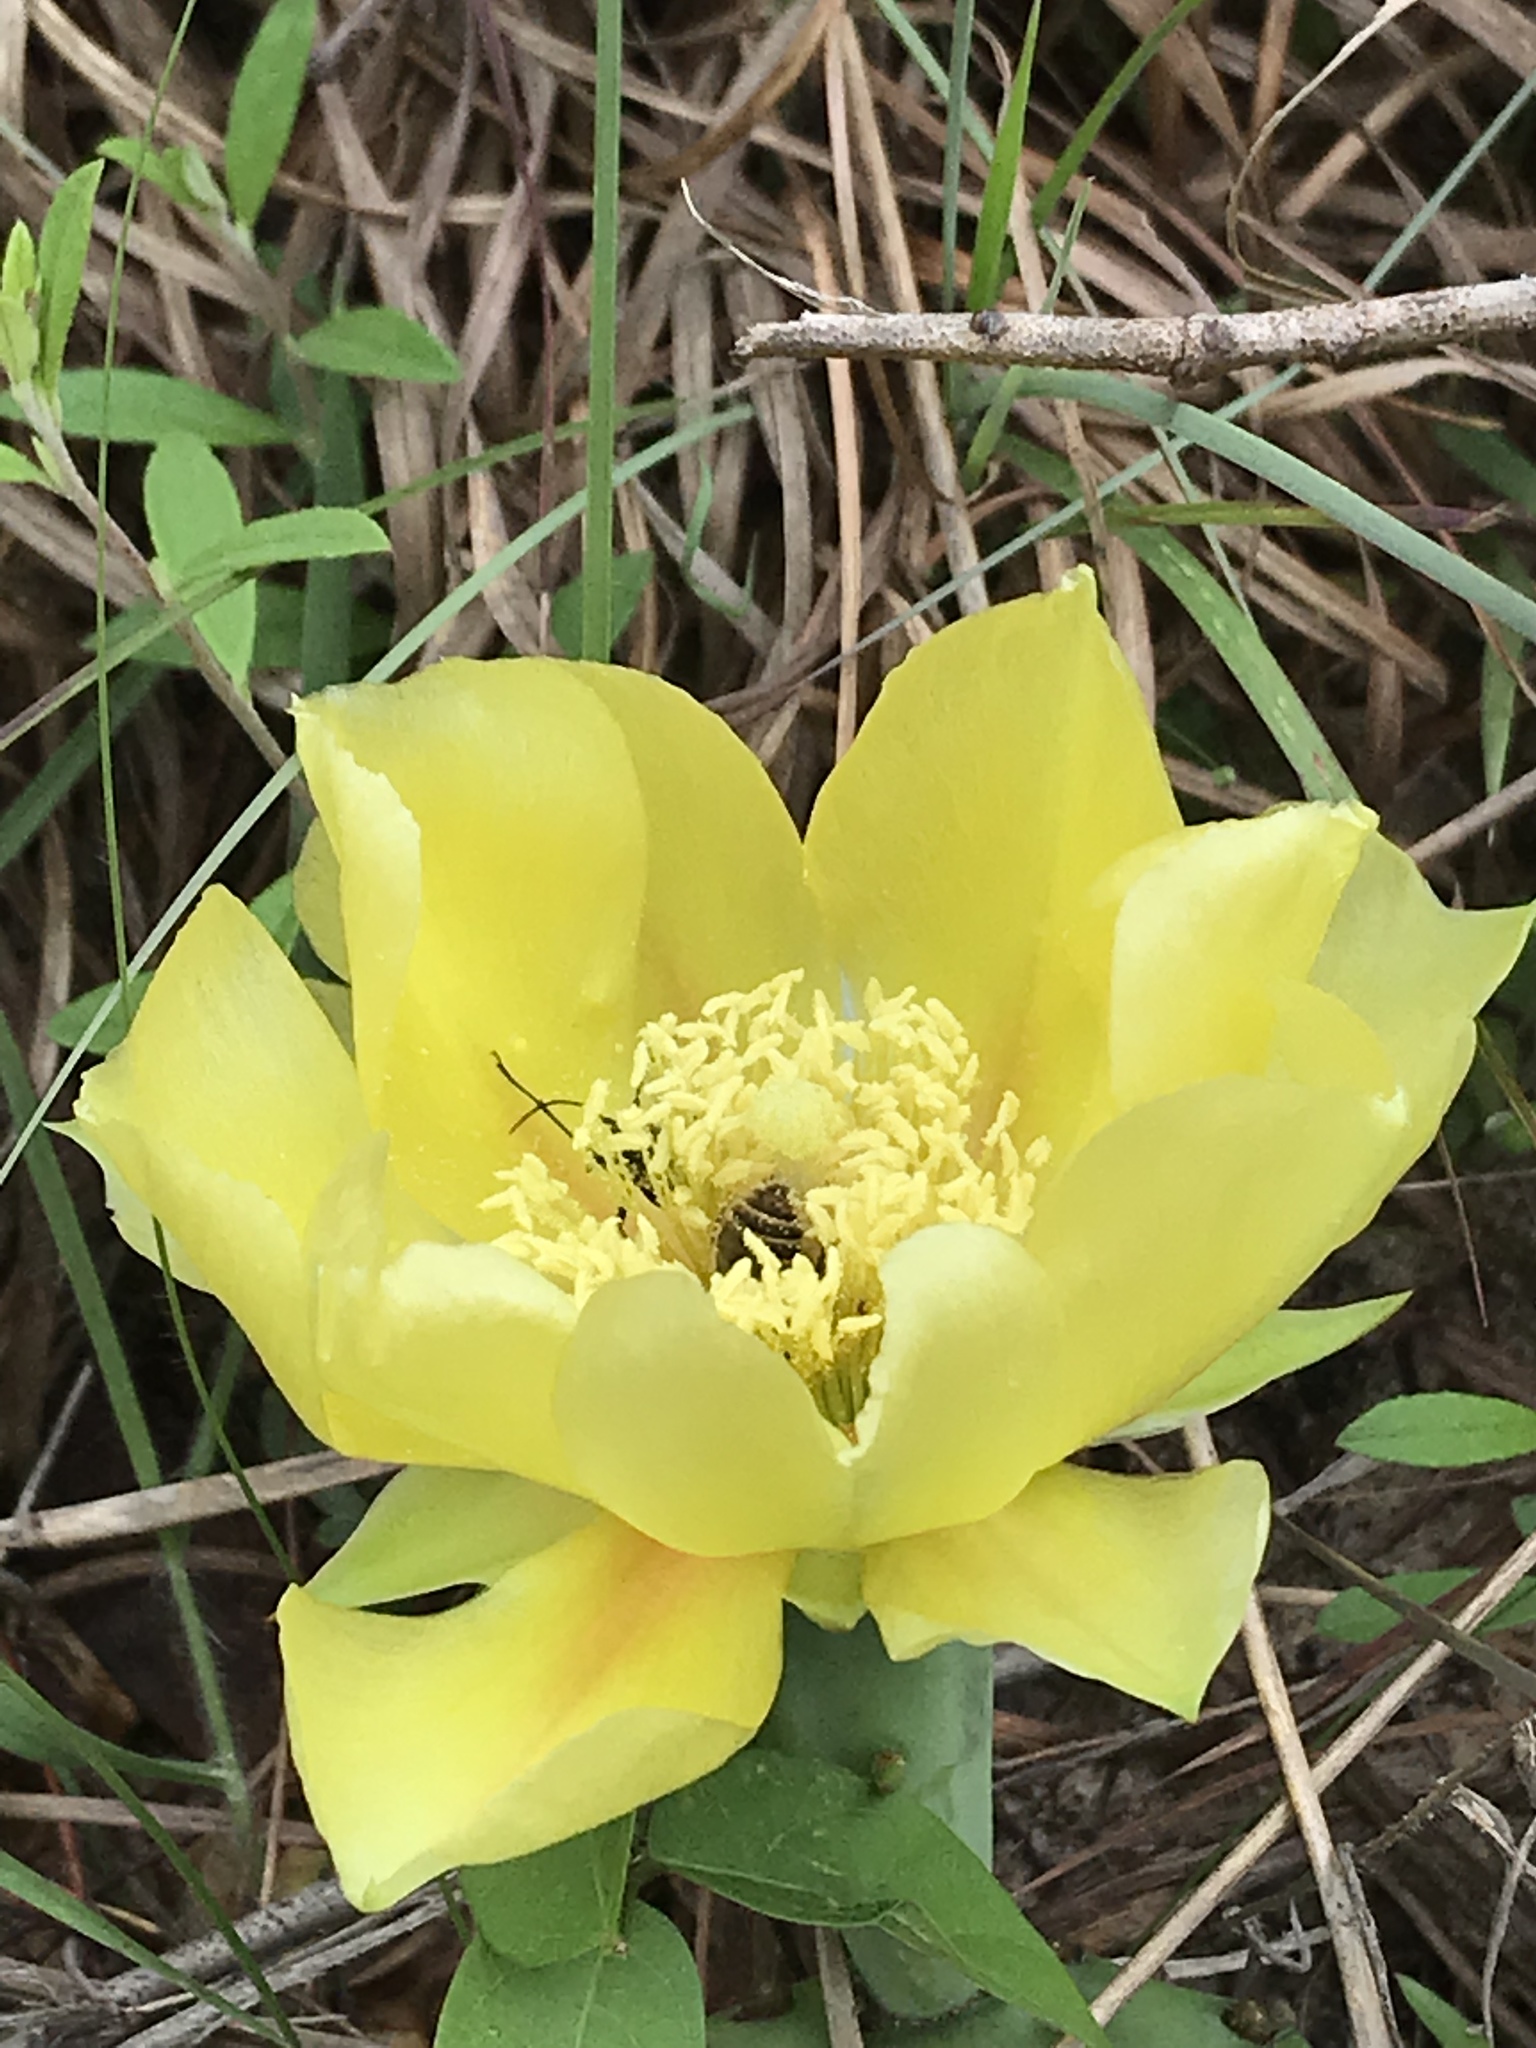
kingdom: Plantae
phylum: Tracheophyta
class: Magnoliopsida
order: Caryophyllales
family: Cactaceae
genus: Opuntia
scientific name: Opuntia macrorhiza
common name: Grassland pricklypear
